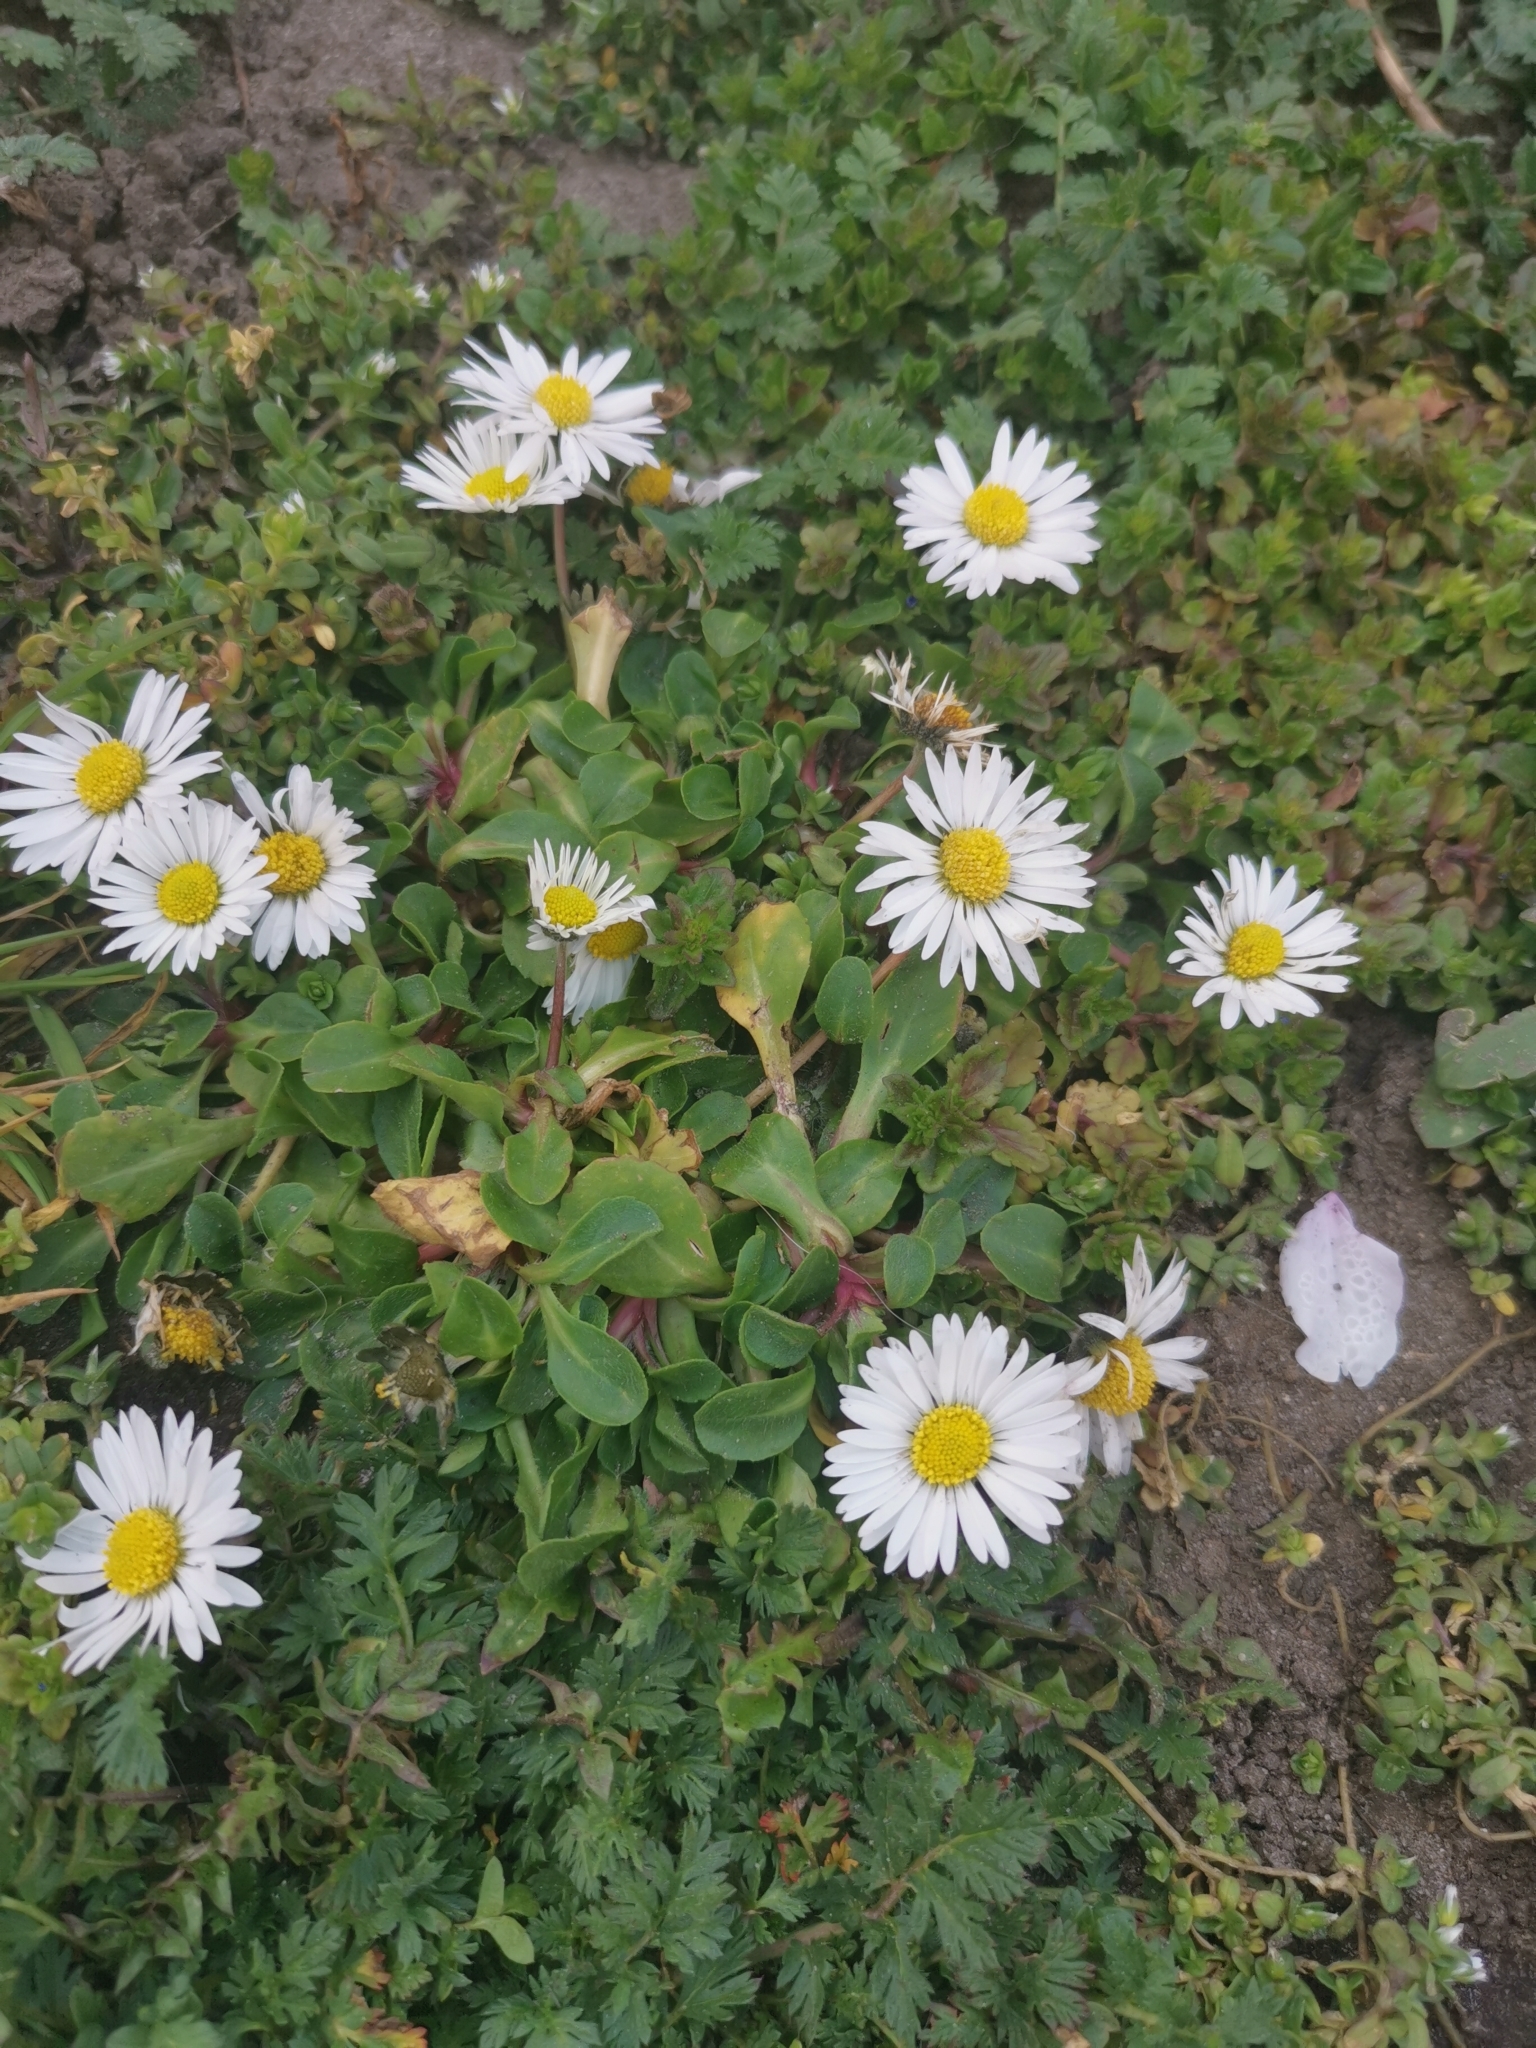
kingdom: Plantae
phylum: Tracheophyta
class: Magnoliopsida
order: Asterales
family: Asteraceae
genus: Bellis
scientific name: Bellis perennis
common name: Lawndaisy
